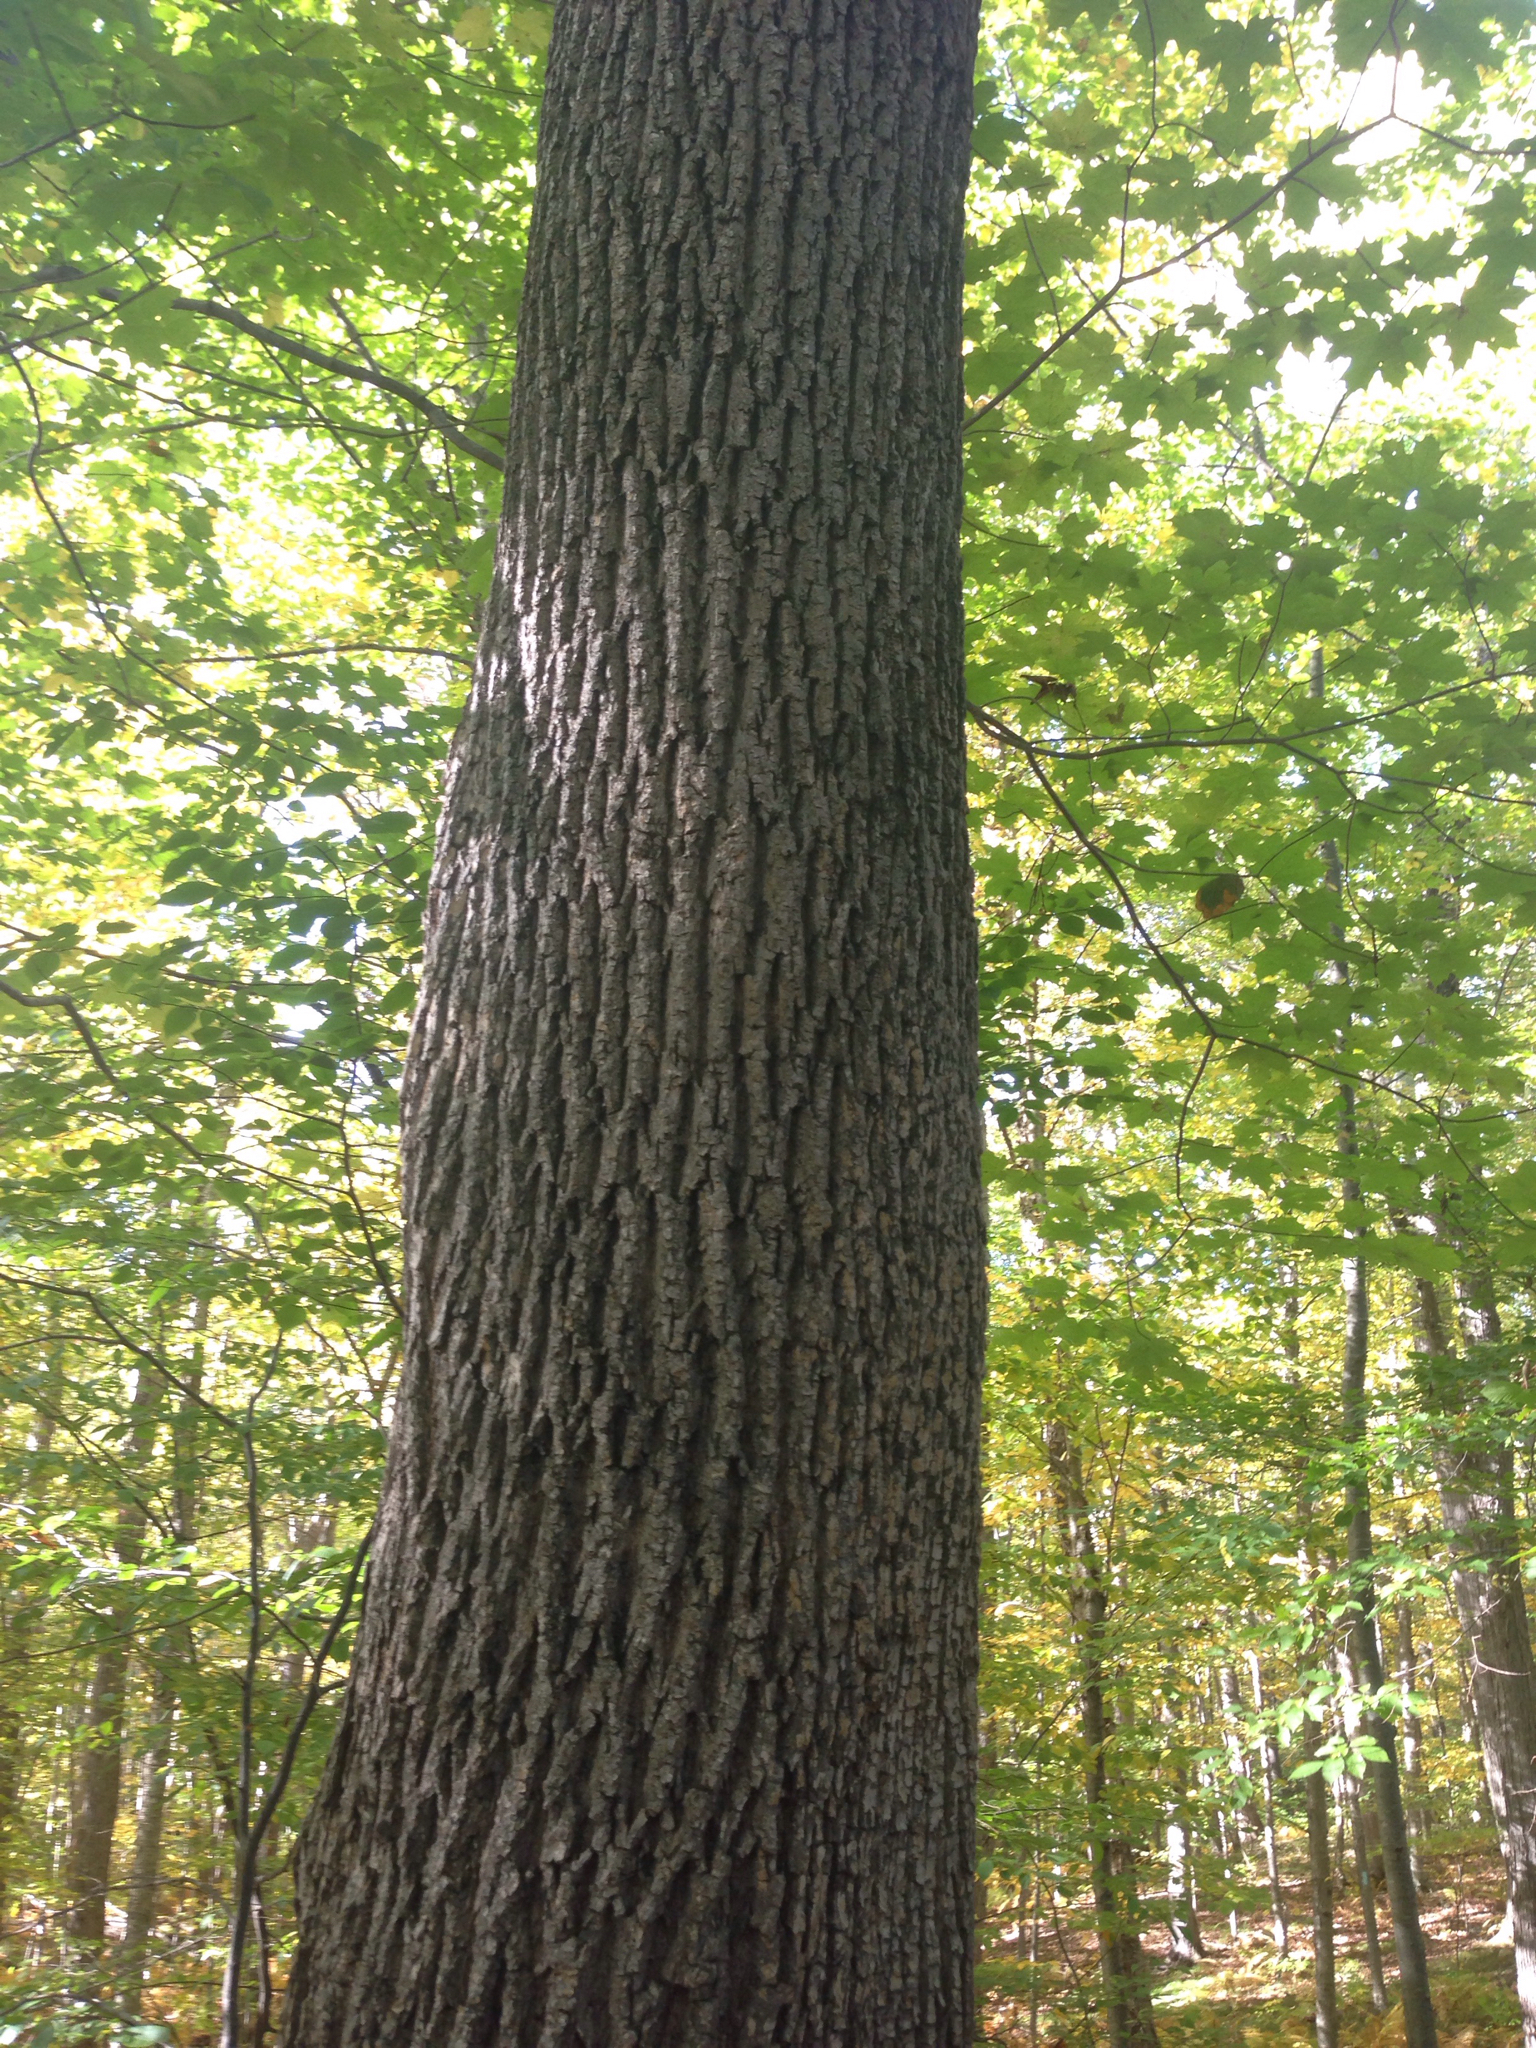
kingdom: Plantae
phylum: Tracheophyta
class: Magnoliopsida
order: Lamiales
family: Oleaceae
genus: Fraxinus
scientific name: Fraxinus americana
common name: White ash
